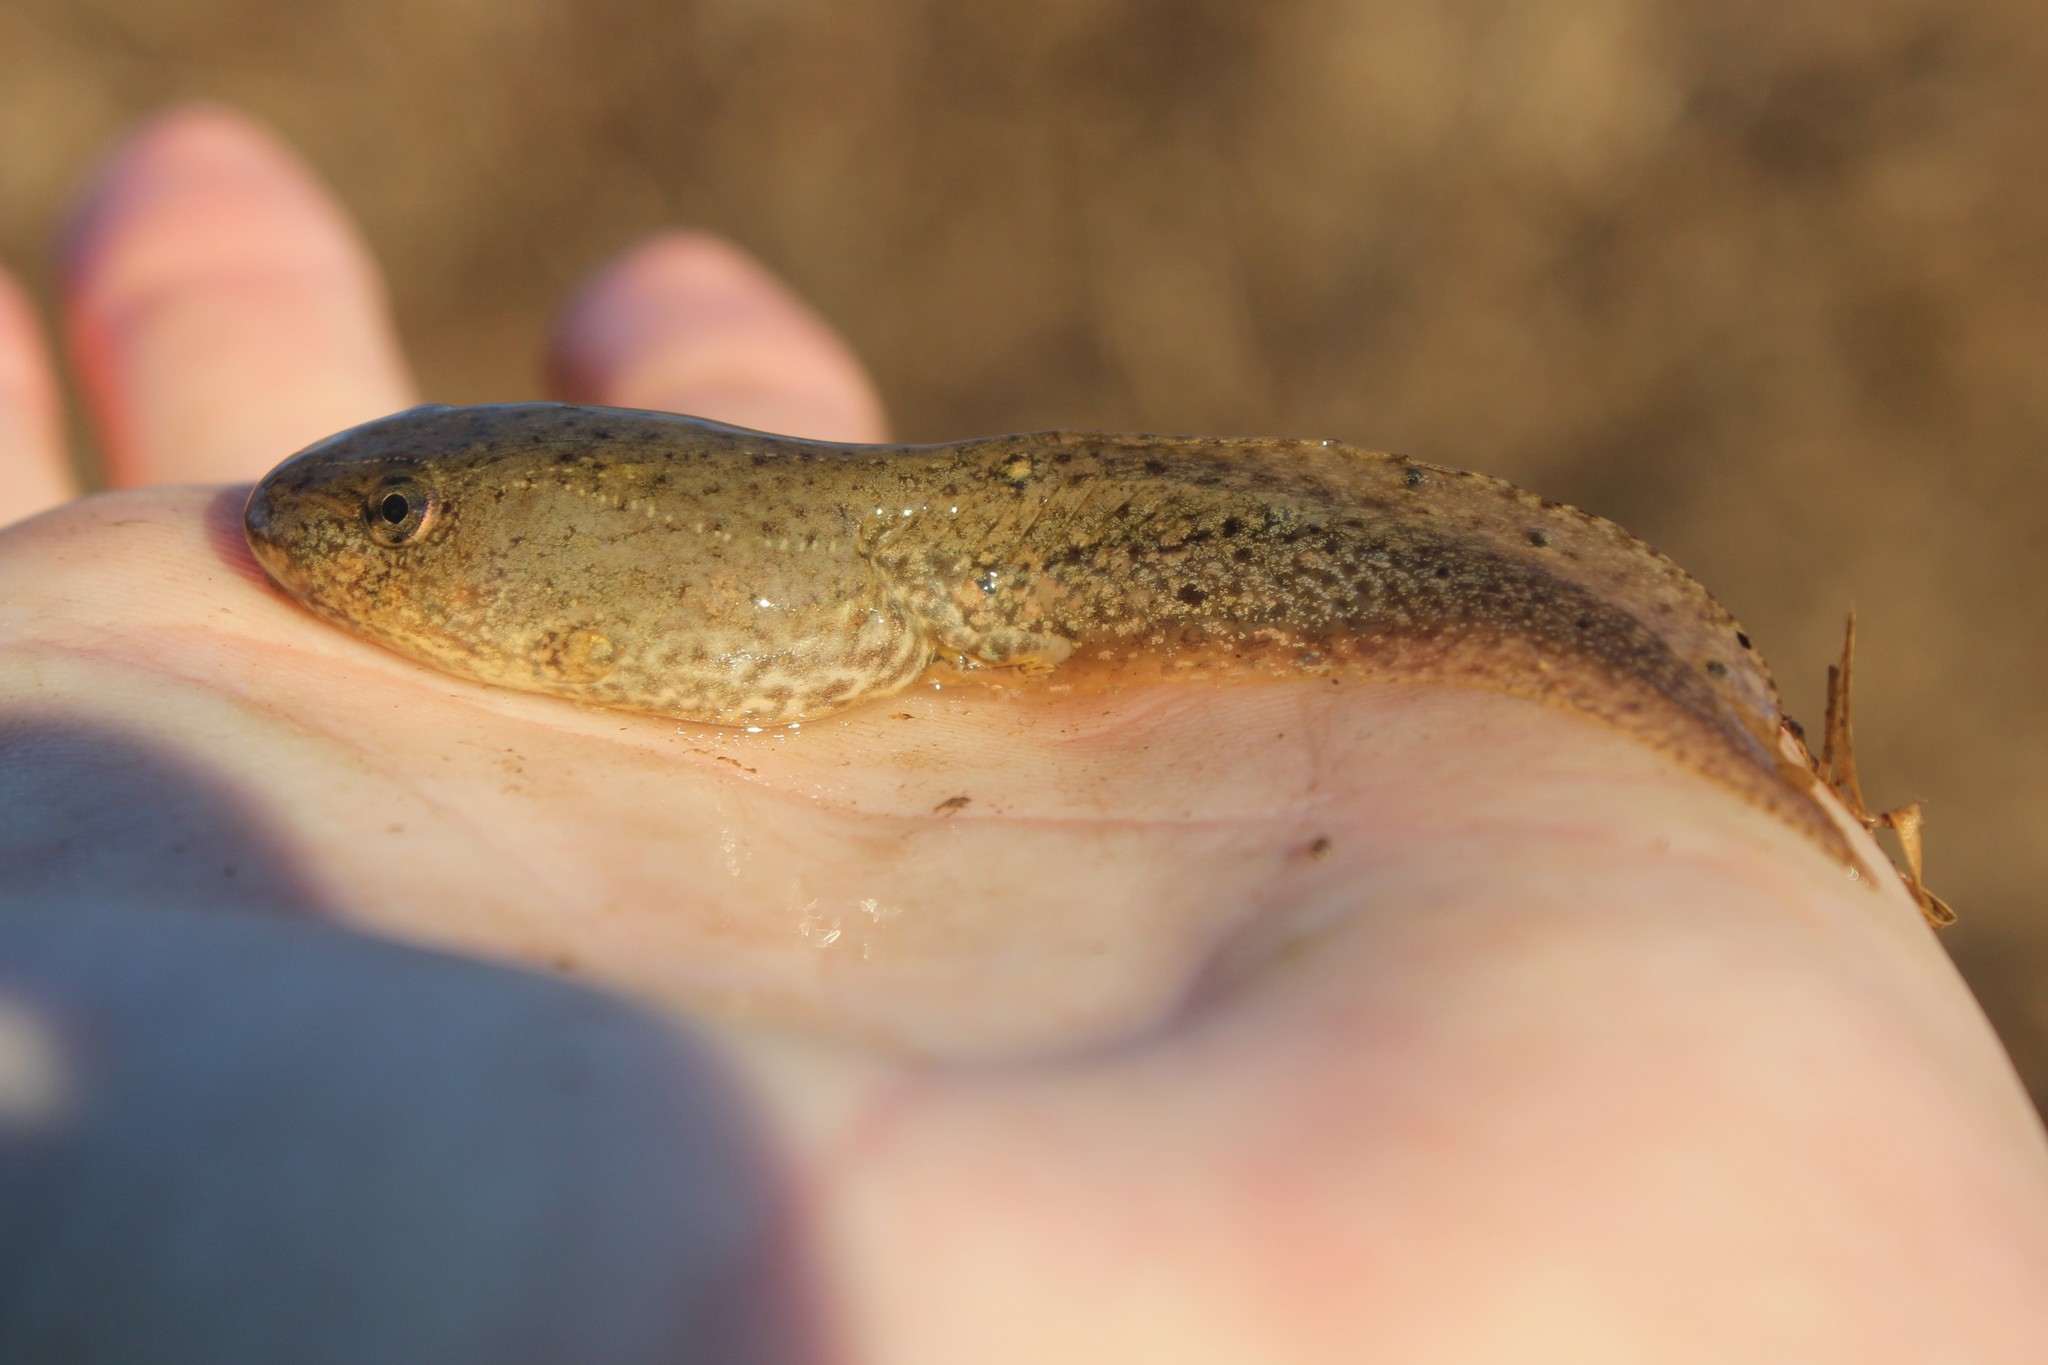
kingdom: Animalia
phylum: Chordata
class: Amphibia
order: Anura
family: Ranidae
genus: Lithobates
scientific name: Lithobates clamitans
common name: Green frog
